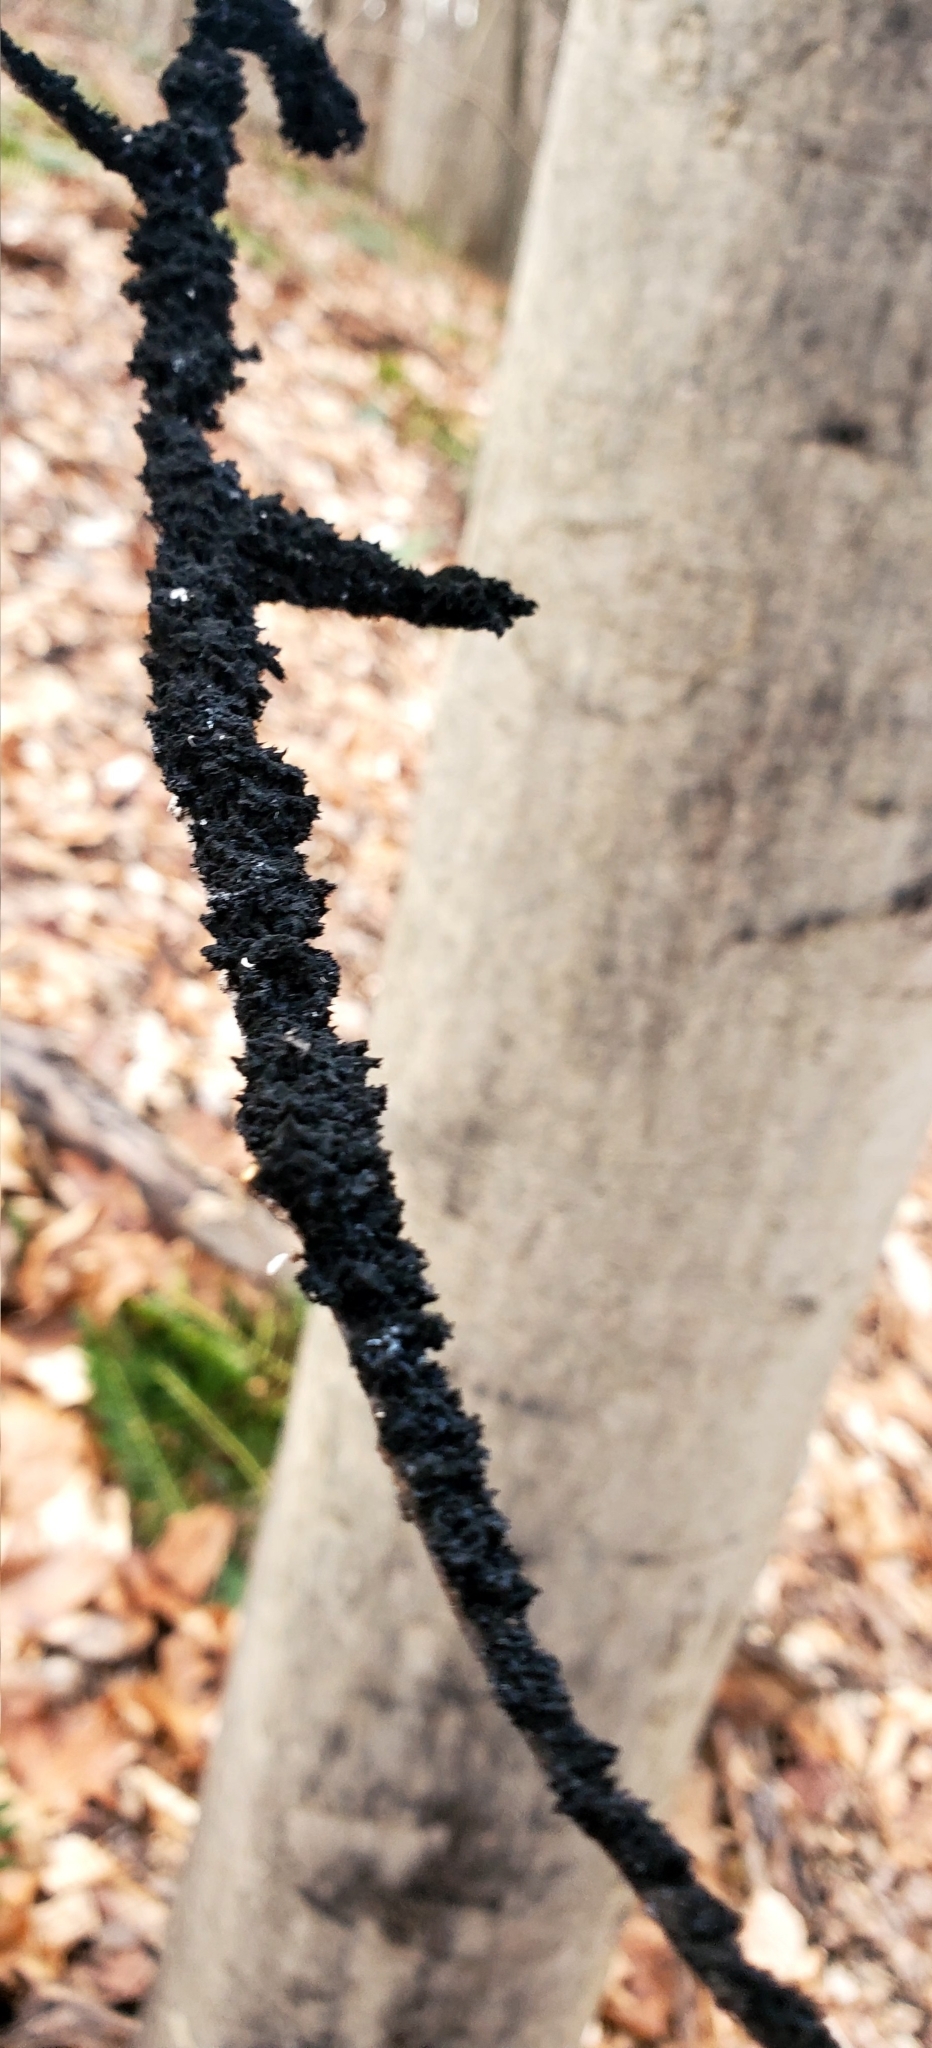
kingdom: Fungi
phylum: Ascomycota
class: Dothideomycetes
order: Capnodiales
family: Capnodiaceae
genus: Scorias
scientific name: Scorias spongiosa
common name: Black sooty mold
